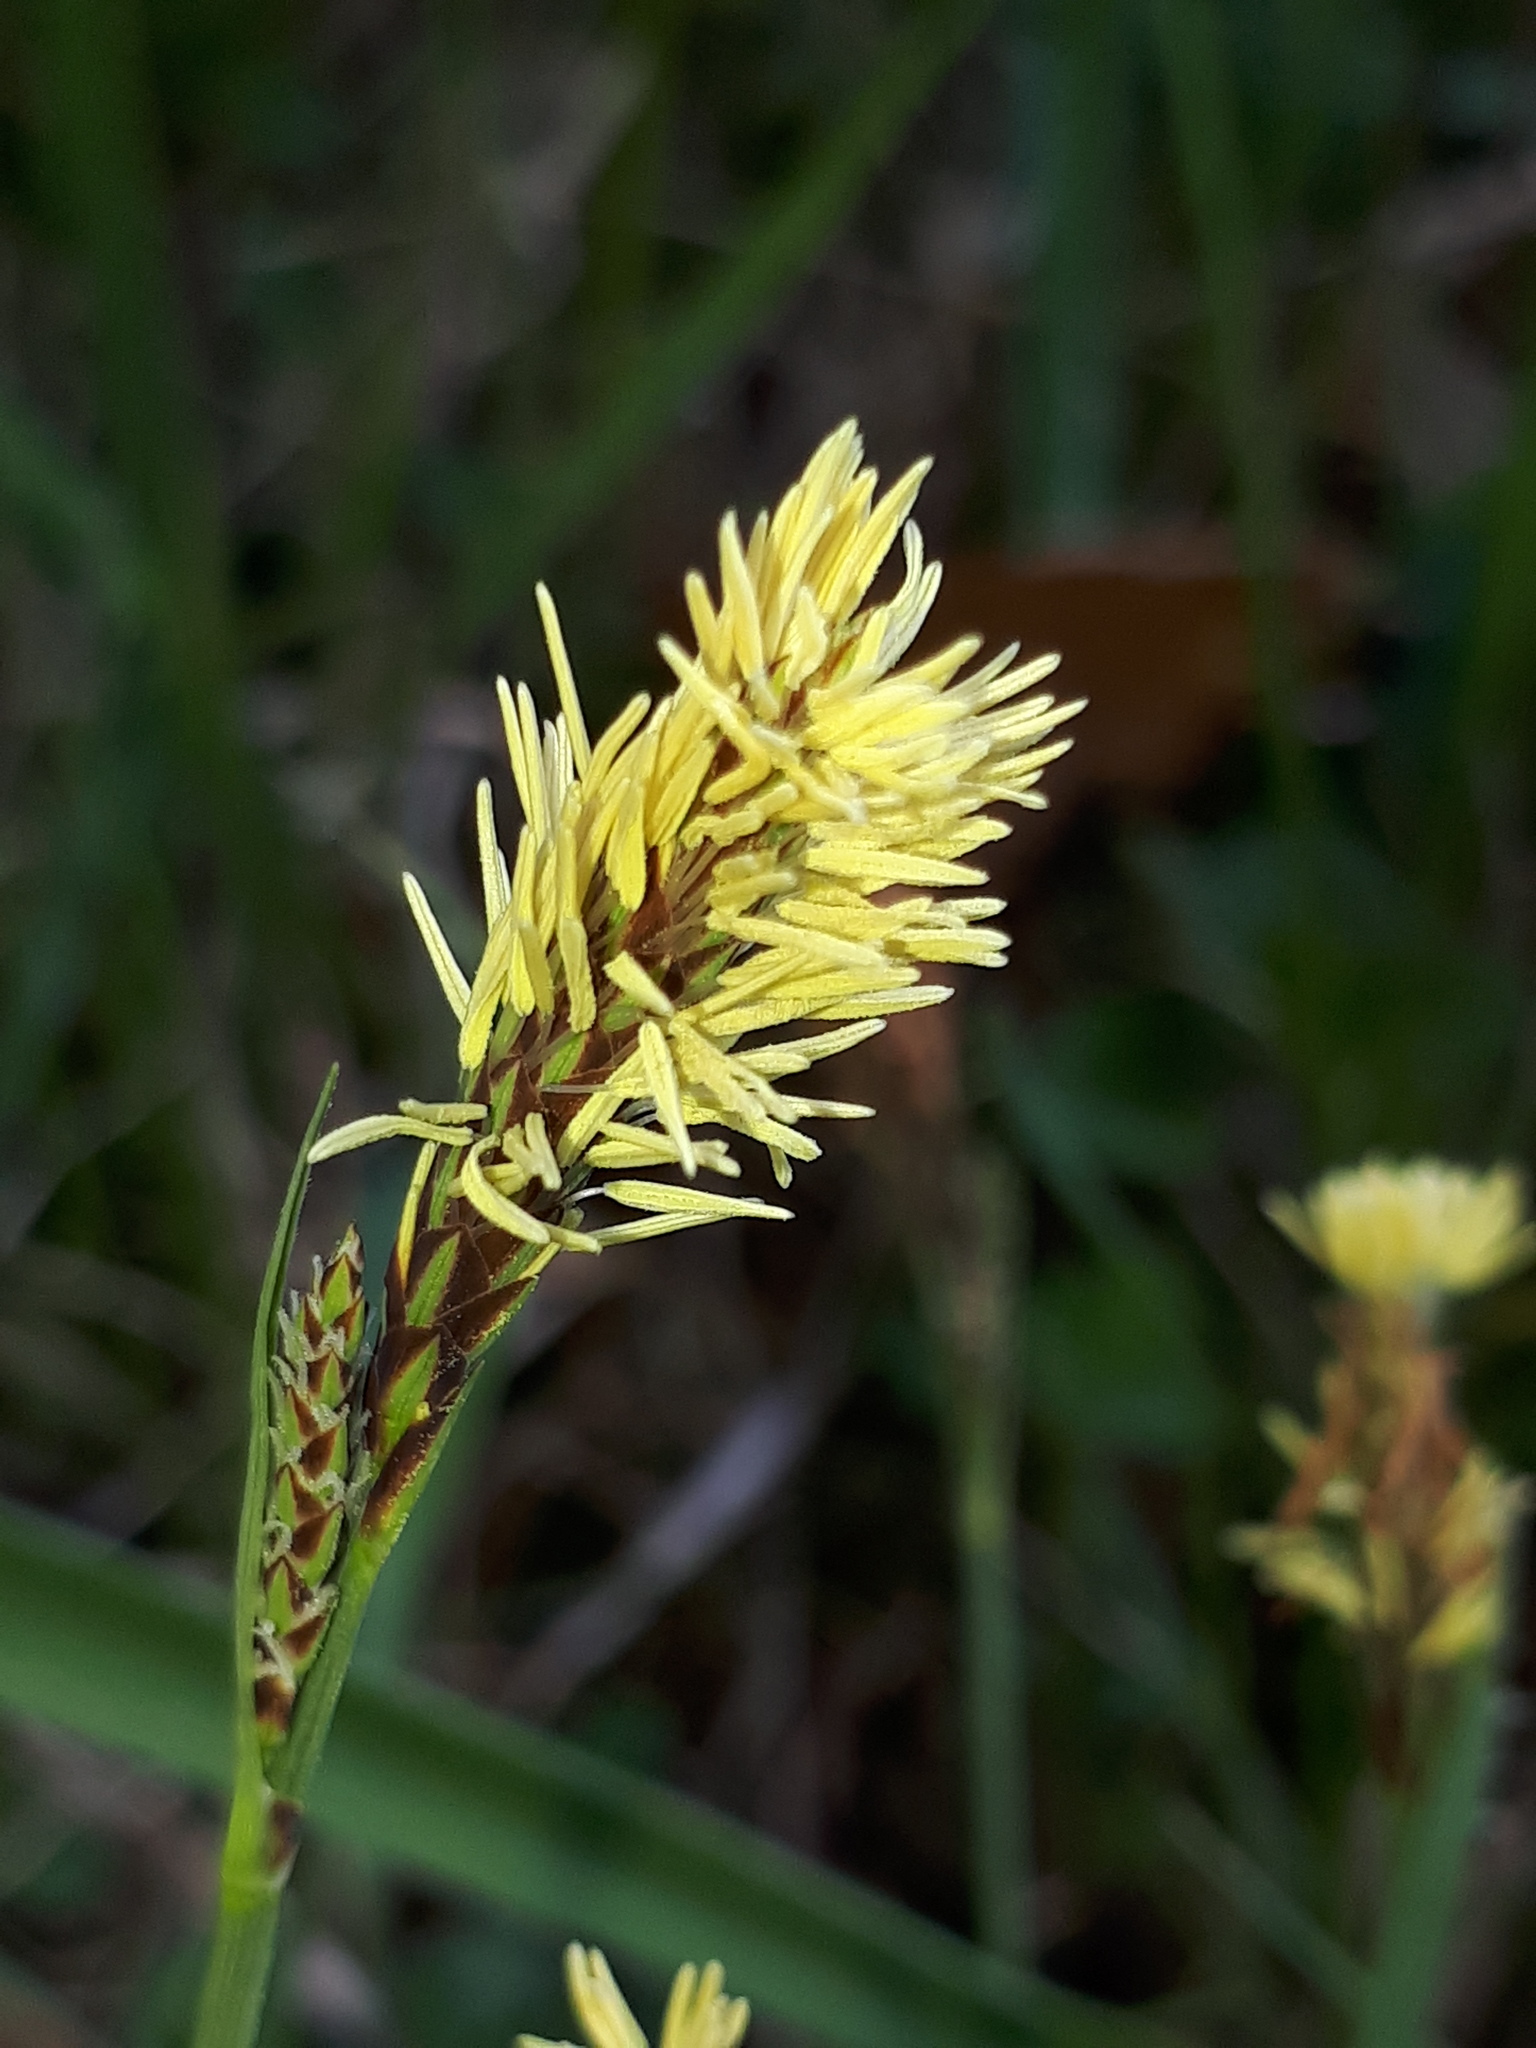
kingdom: Plantae
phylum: Tracheophyta
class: Liliopsida
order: Poales
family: Cyperaceae
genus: Carex
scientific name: Carex caryophyllea
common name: Spring sedge
